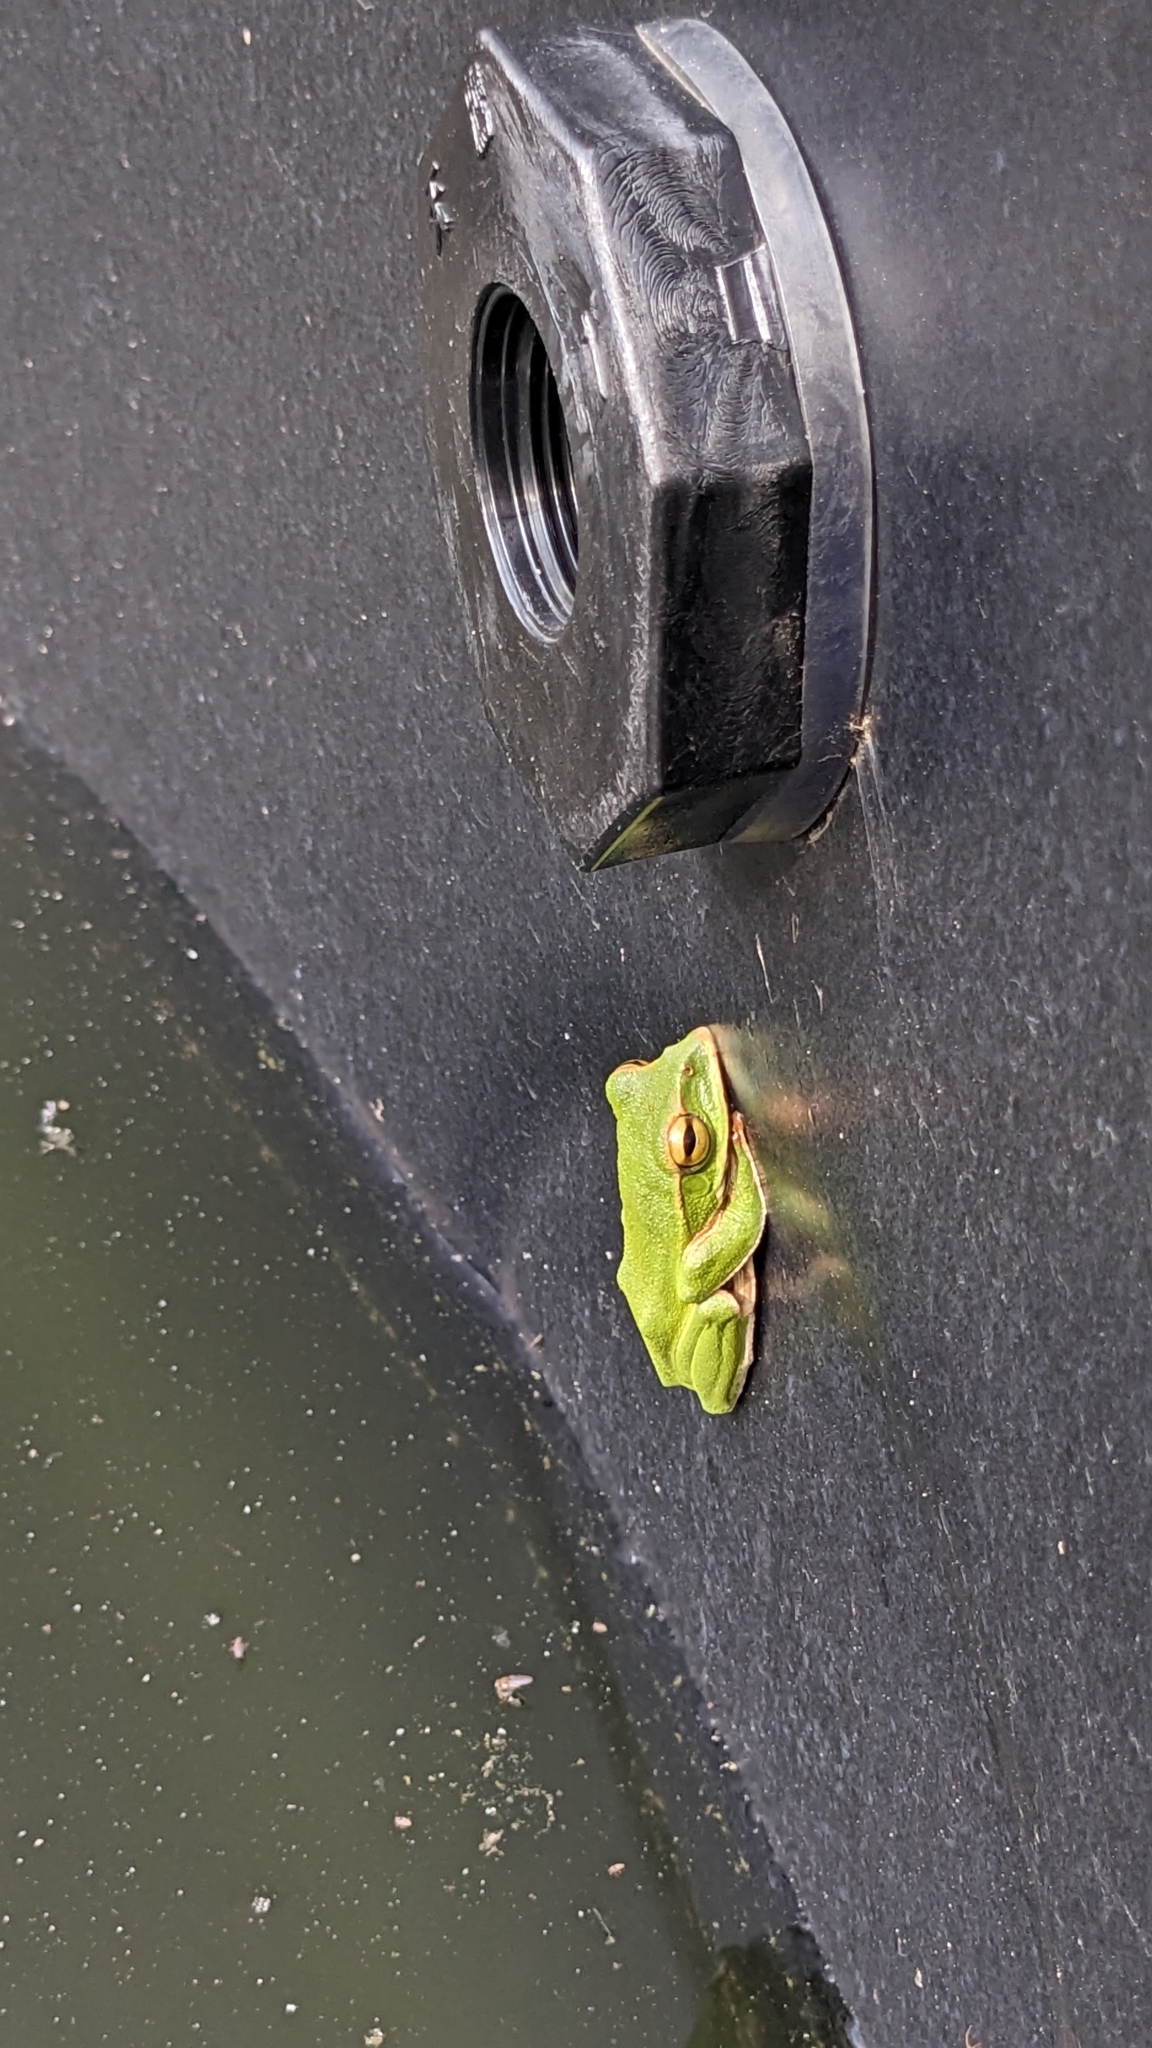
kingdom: Animalia
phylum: Chordata
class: Amphibia
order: Anura
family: Rhacophoridae
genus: Zhangixalus
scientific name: Zhangixalus prasinatus
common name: Tributary flying frog
